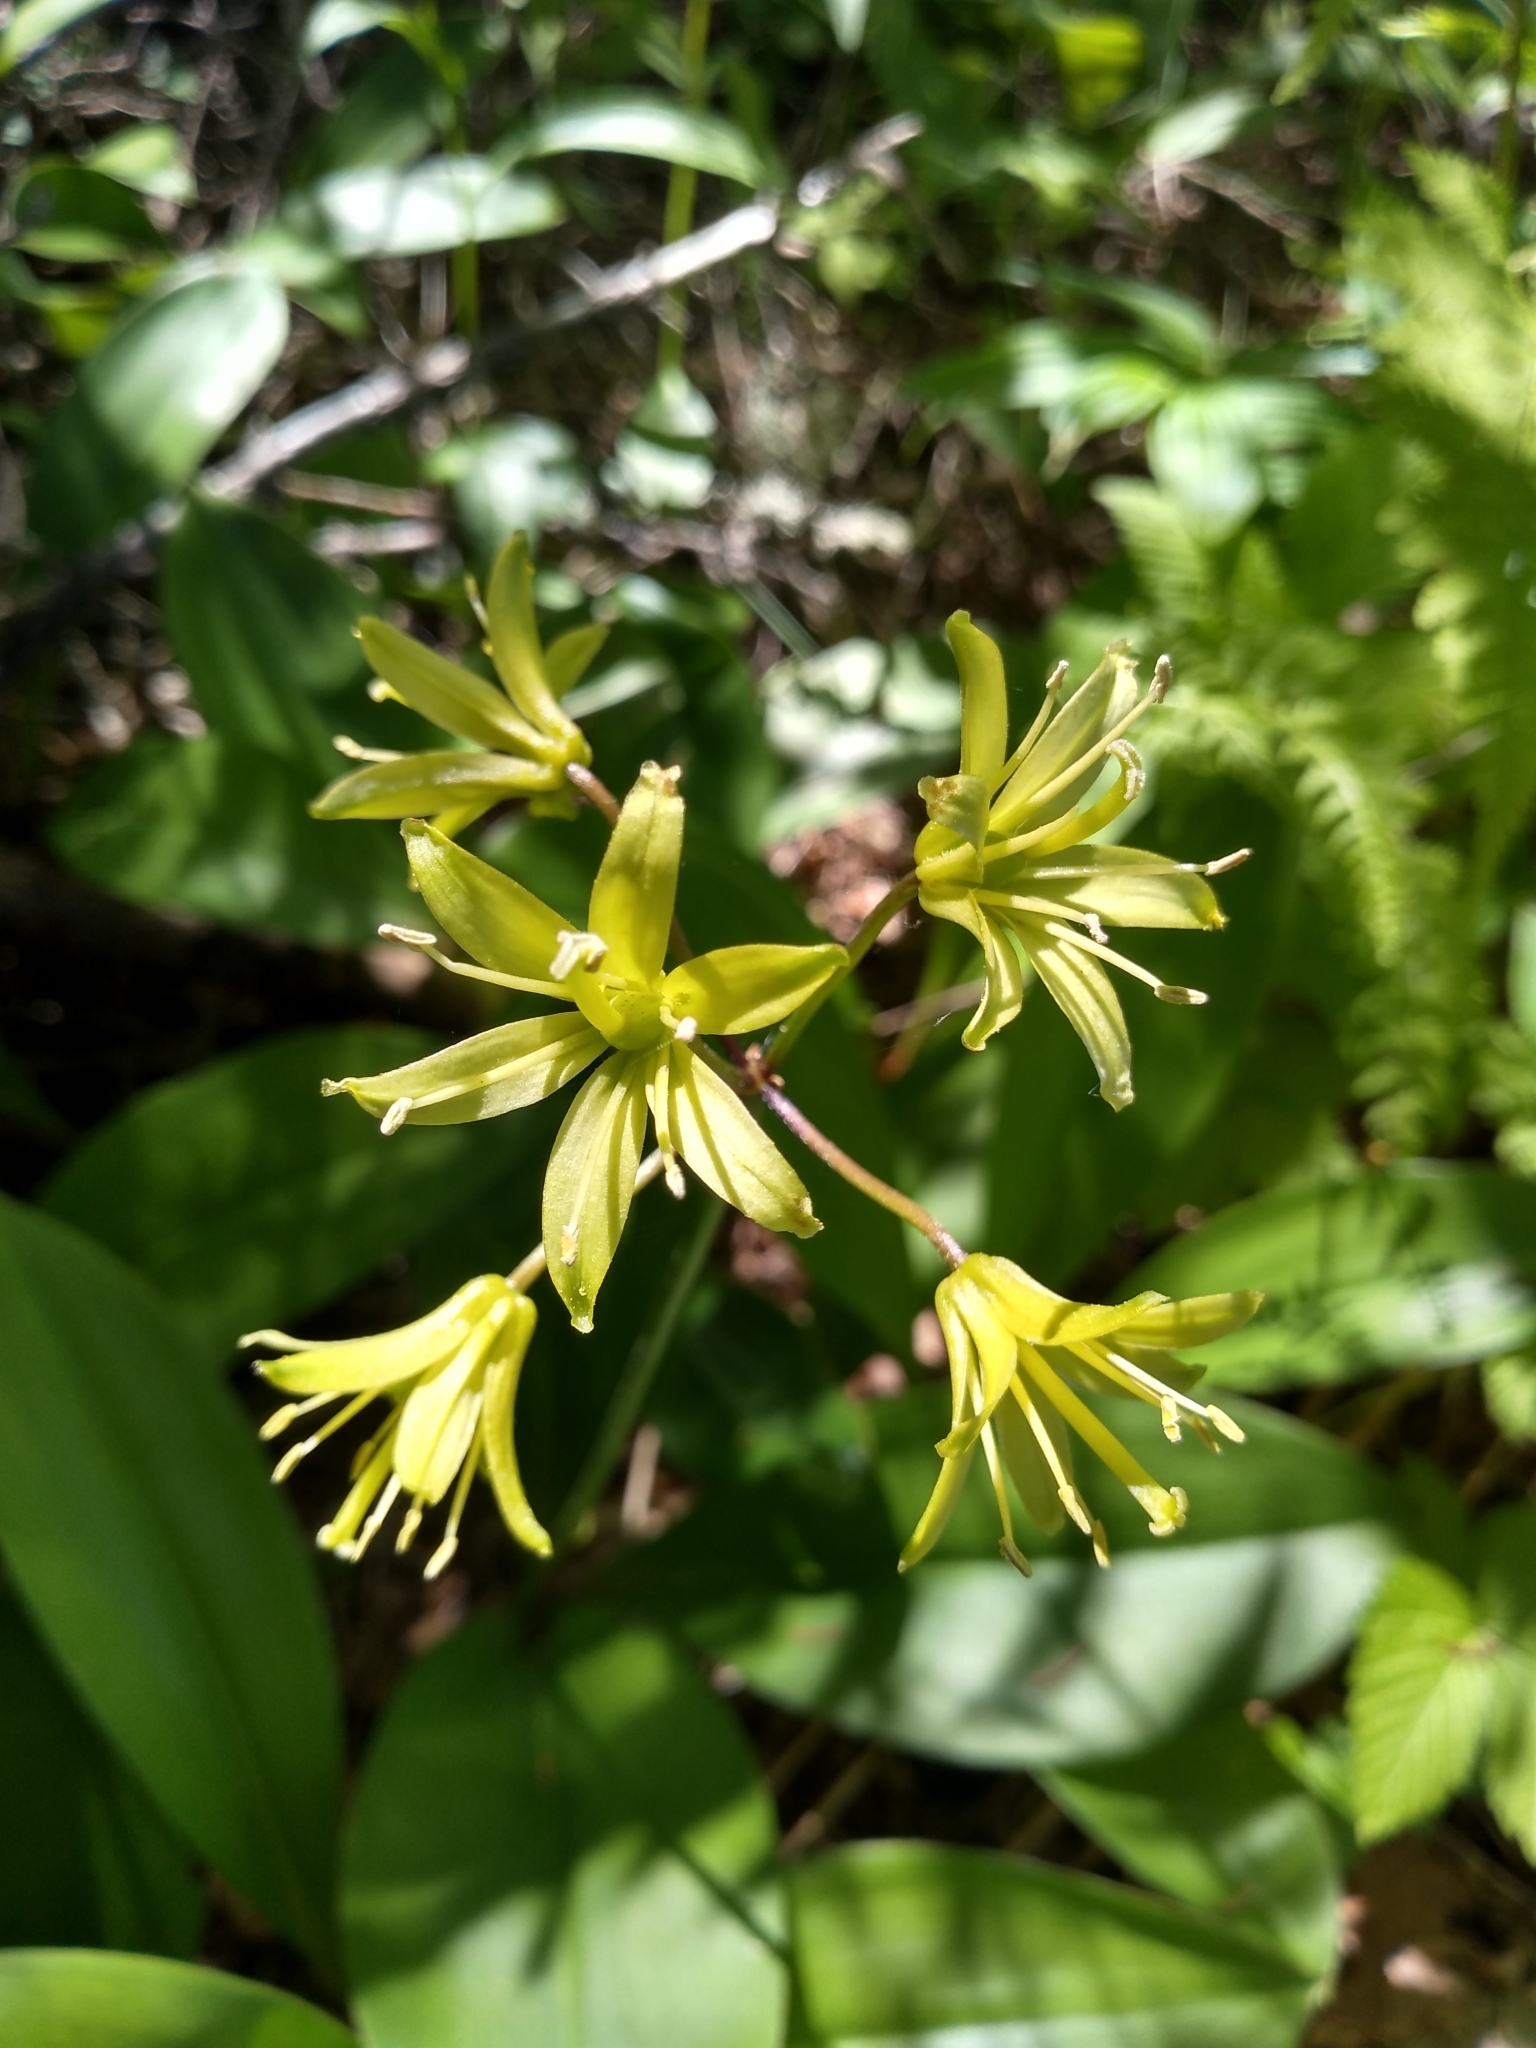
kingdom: Plantae
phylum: Tracheophyta
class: Liliopsida
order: Liliales
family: Liliaceae
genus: Clintonia
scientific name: Clintonia borealis
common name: Yellow clintonia
